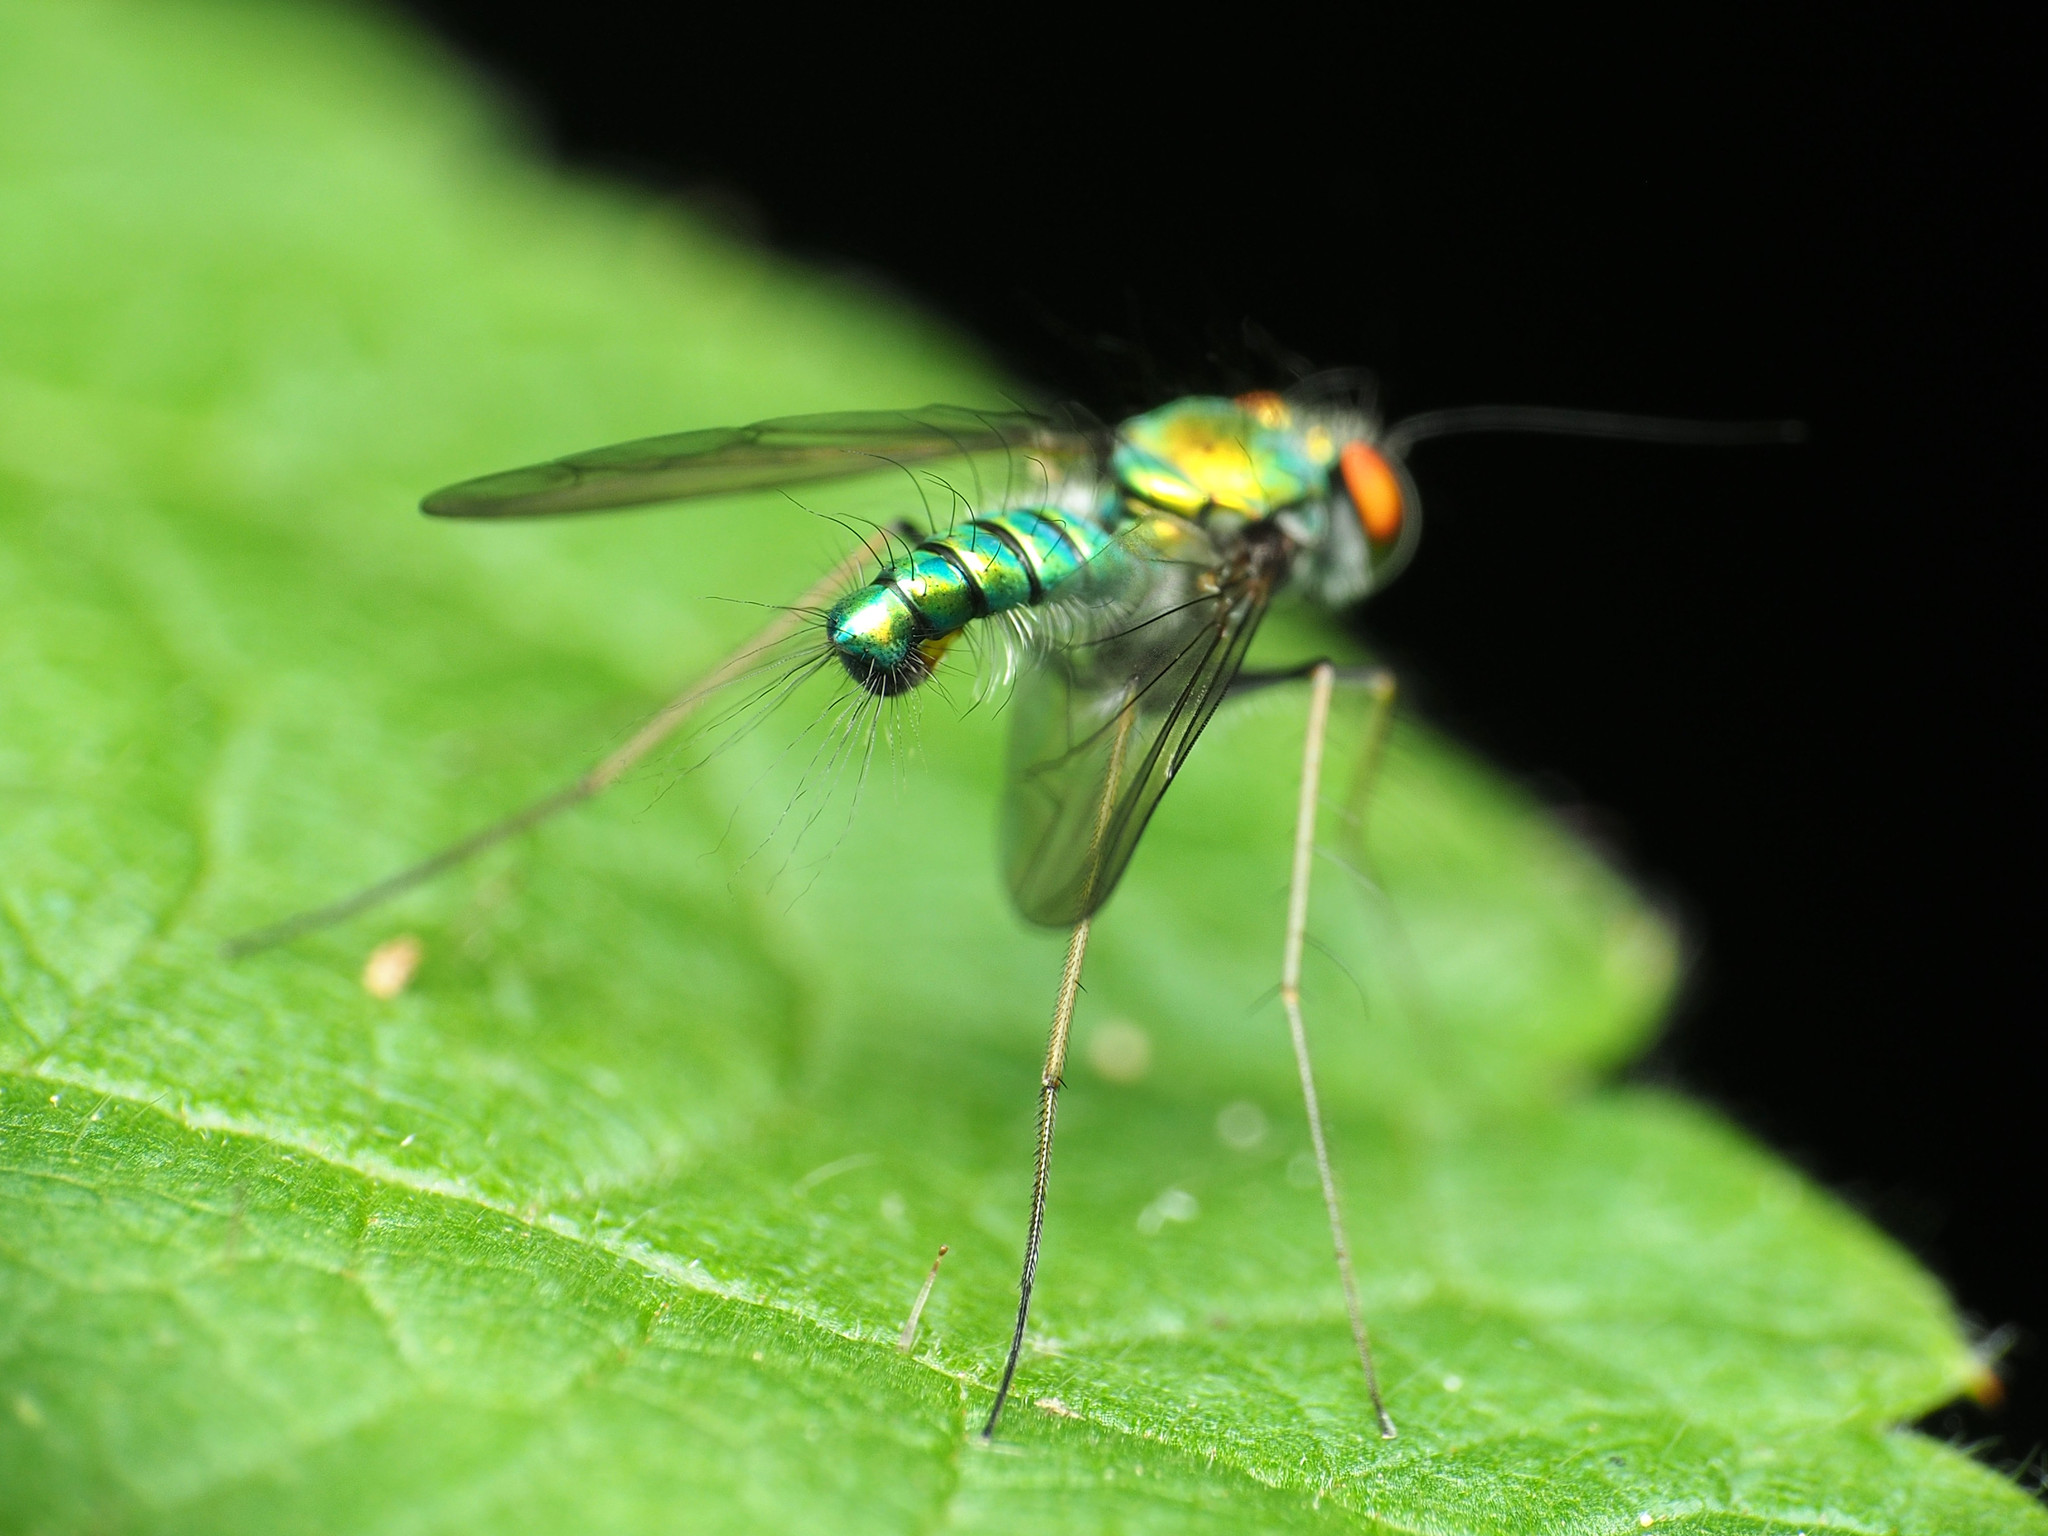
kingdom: Animalia
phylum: Arthropoda
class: Insecta
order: Diptera
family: Dolichopodidae
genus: Condylostylus
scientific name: Condylostylus comatus
